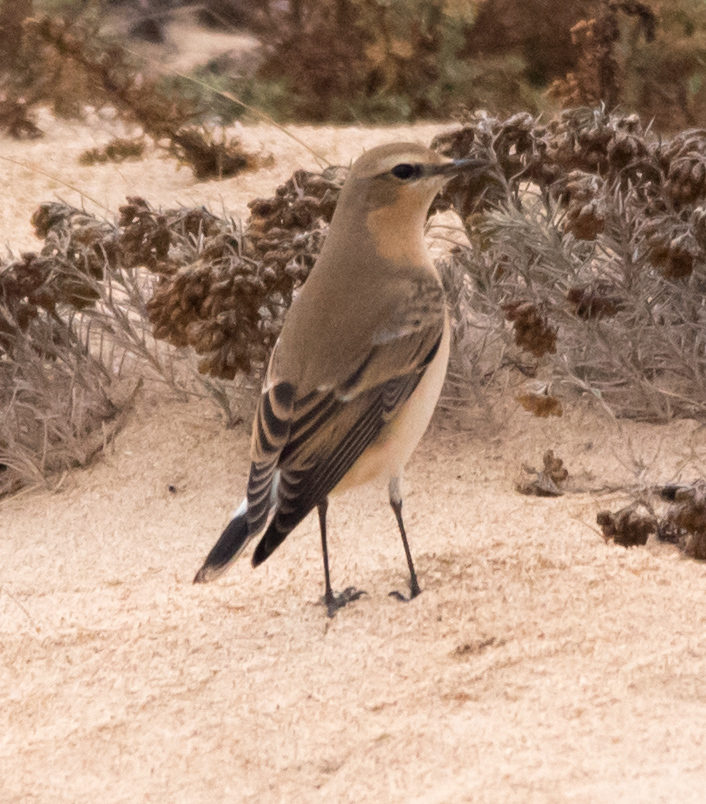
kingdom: Animalia
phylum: Chordata
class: Aves
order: Passeriformes
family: Muscicapidae
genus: Oenanthe
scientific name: Oenanthe oenanthe
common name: Northern wheatear
